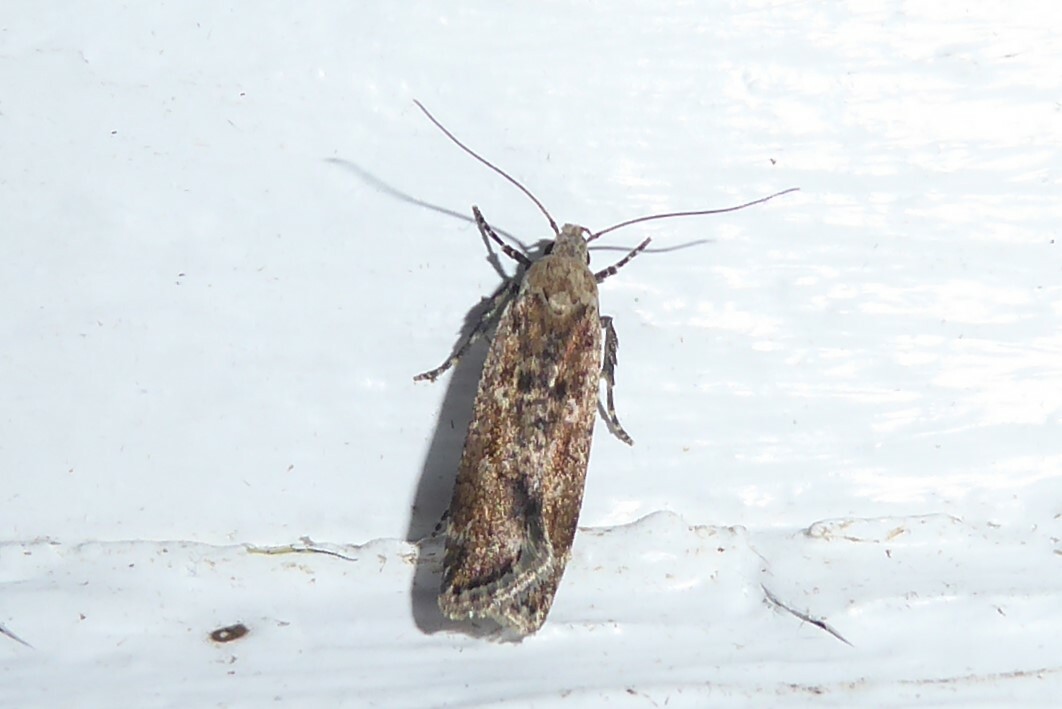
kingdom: Animalia
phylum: Arthropoda
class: Insecta
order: Lepidoptera
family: Gelechiidae
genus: Anisoplaca
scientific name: Anisoplaca achyrota
